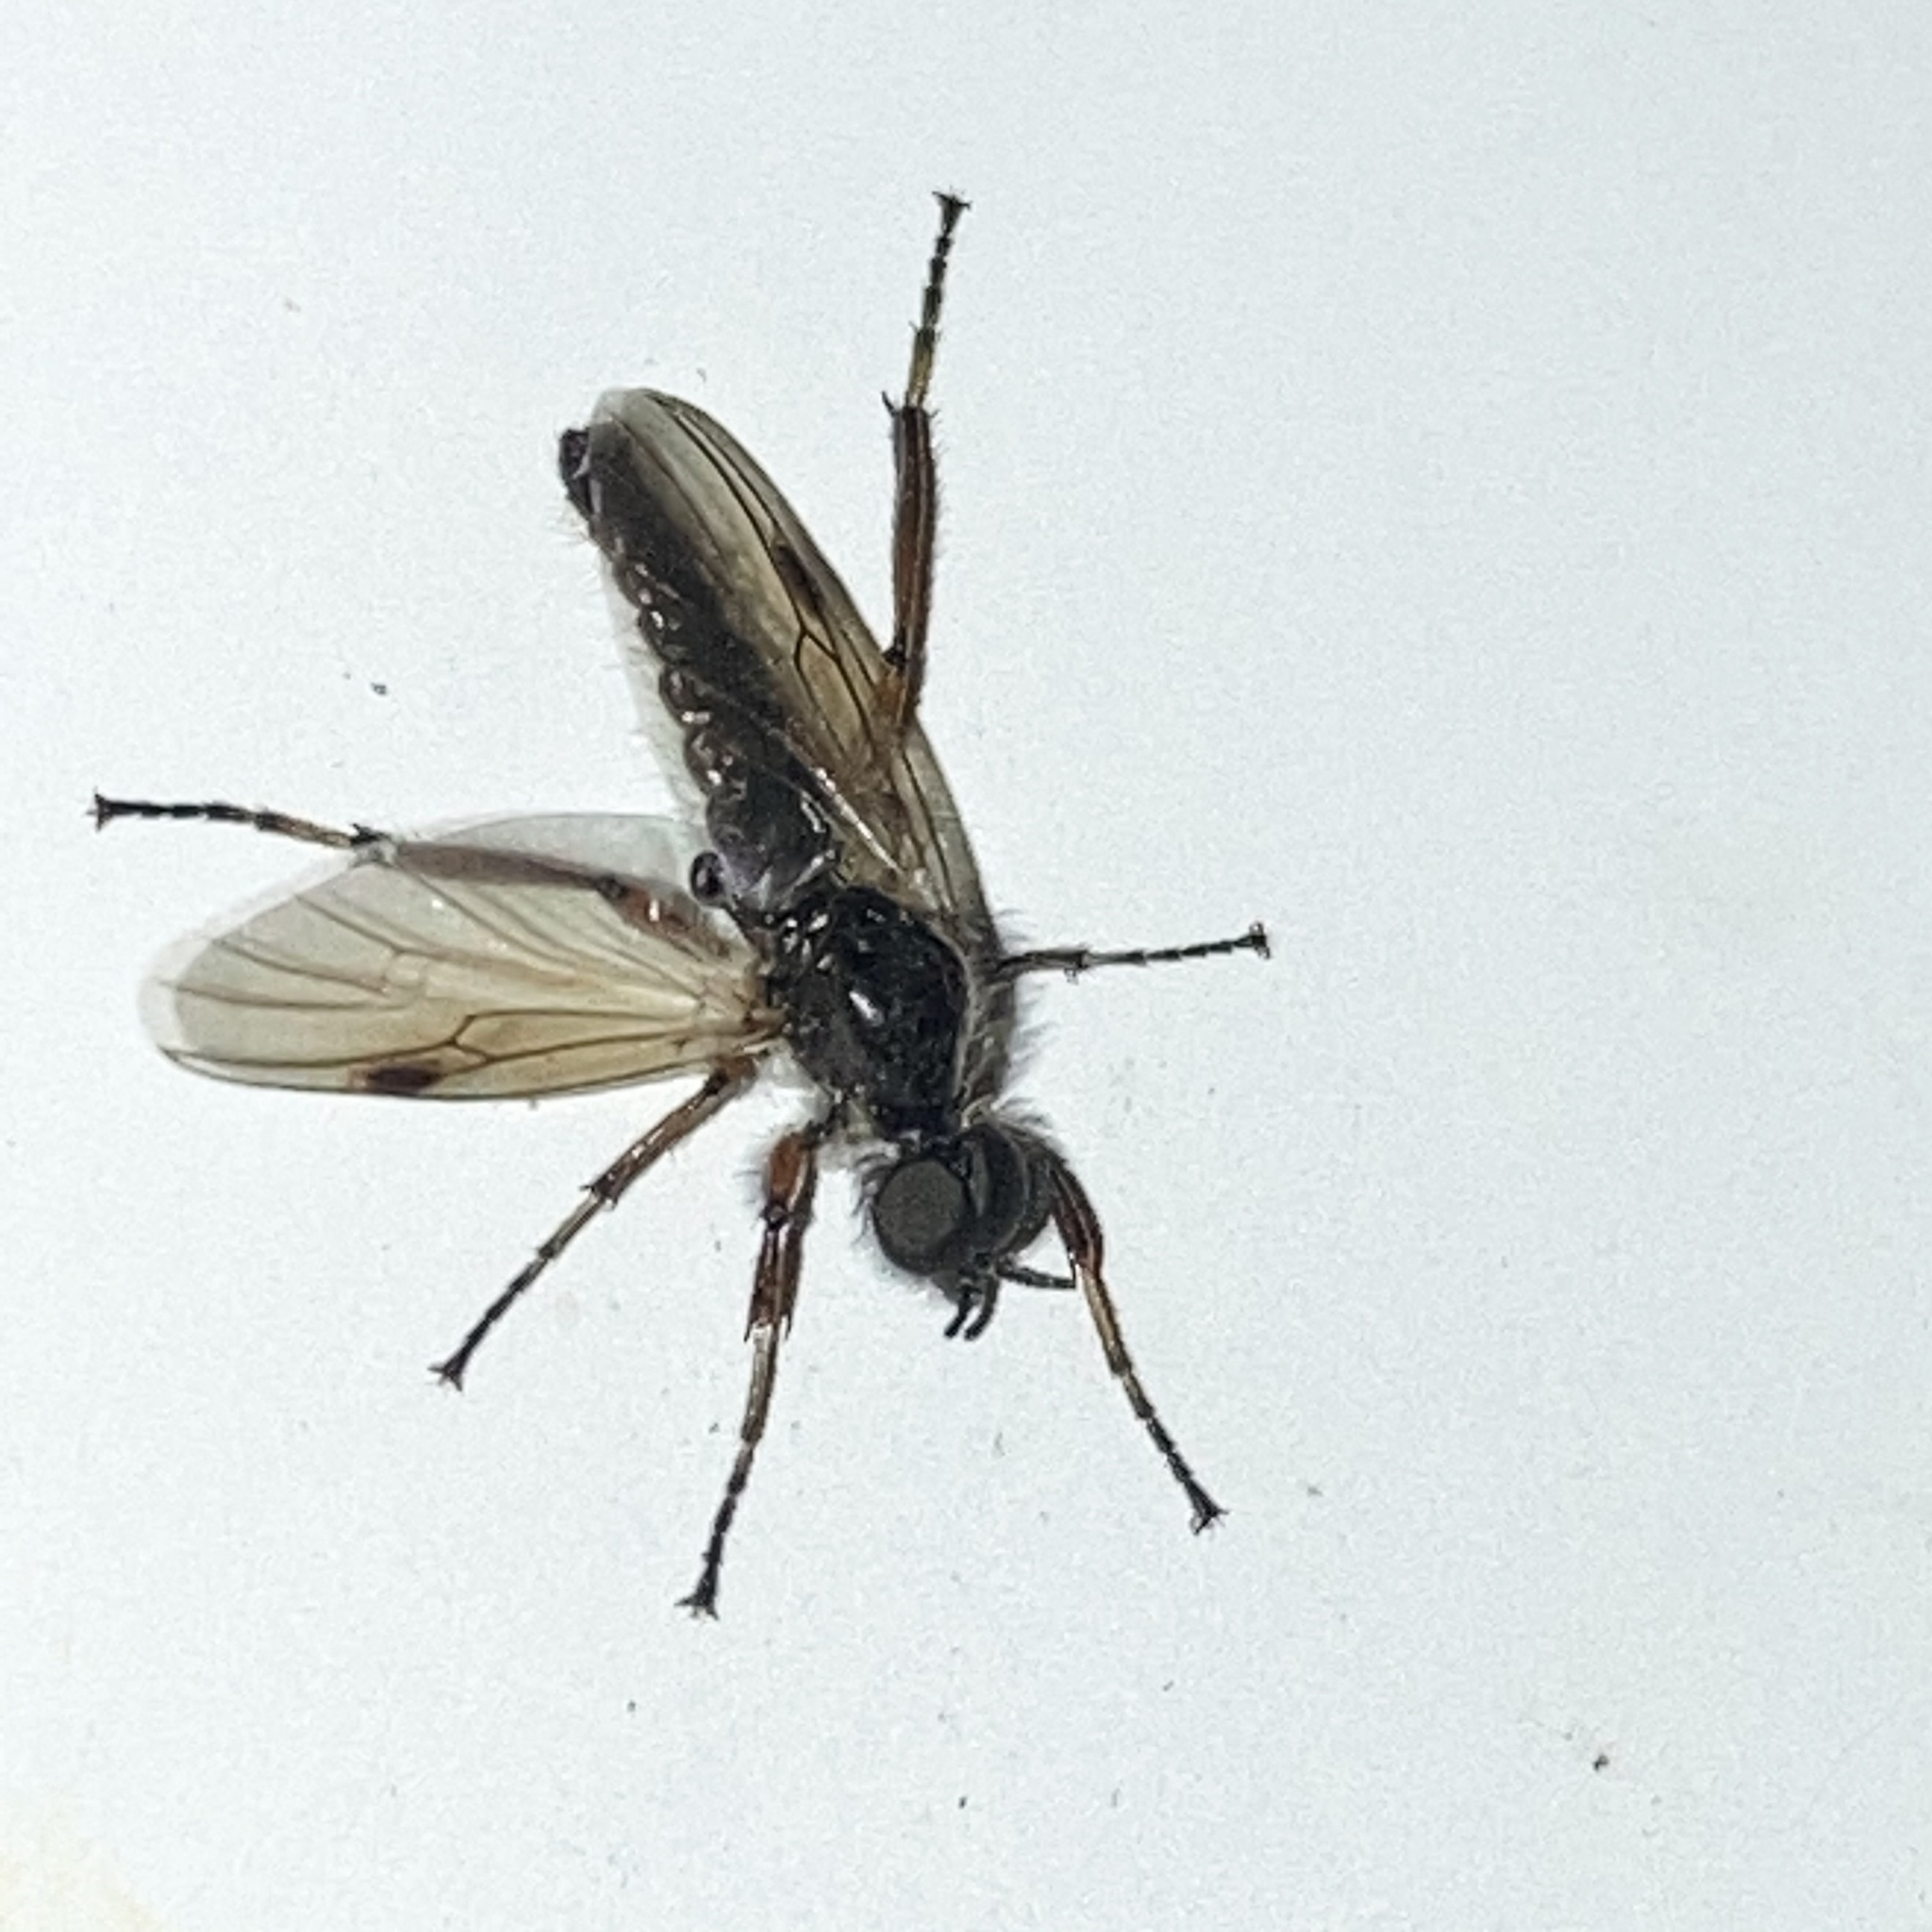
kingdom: Animalia
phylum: Arthropoda
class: Insecta
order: Diptera
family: Bibionidae
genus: Bibio
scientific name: Bibio
